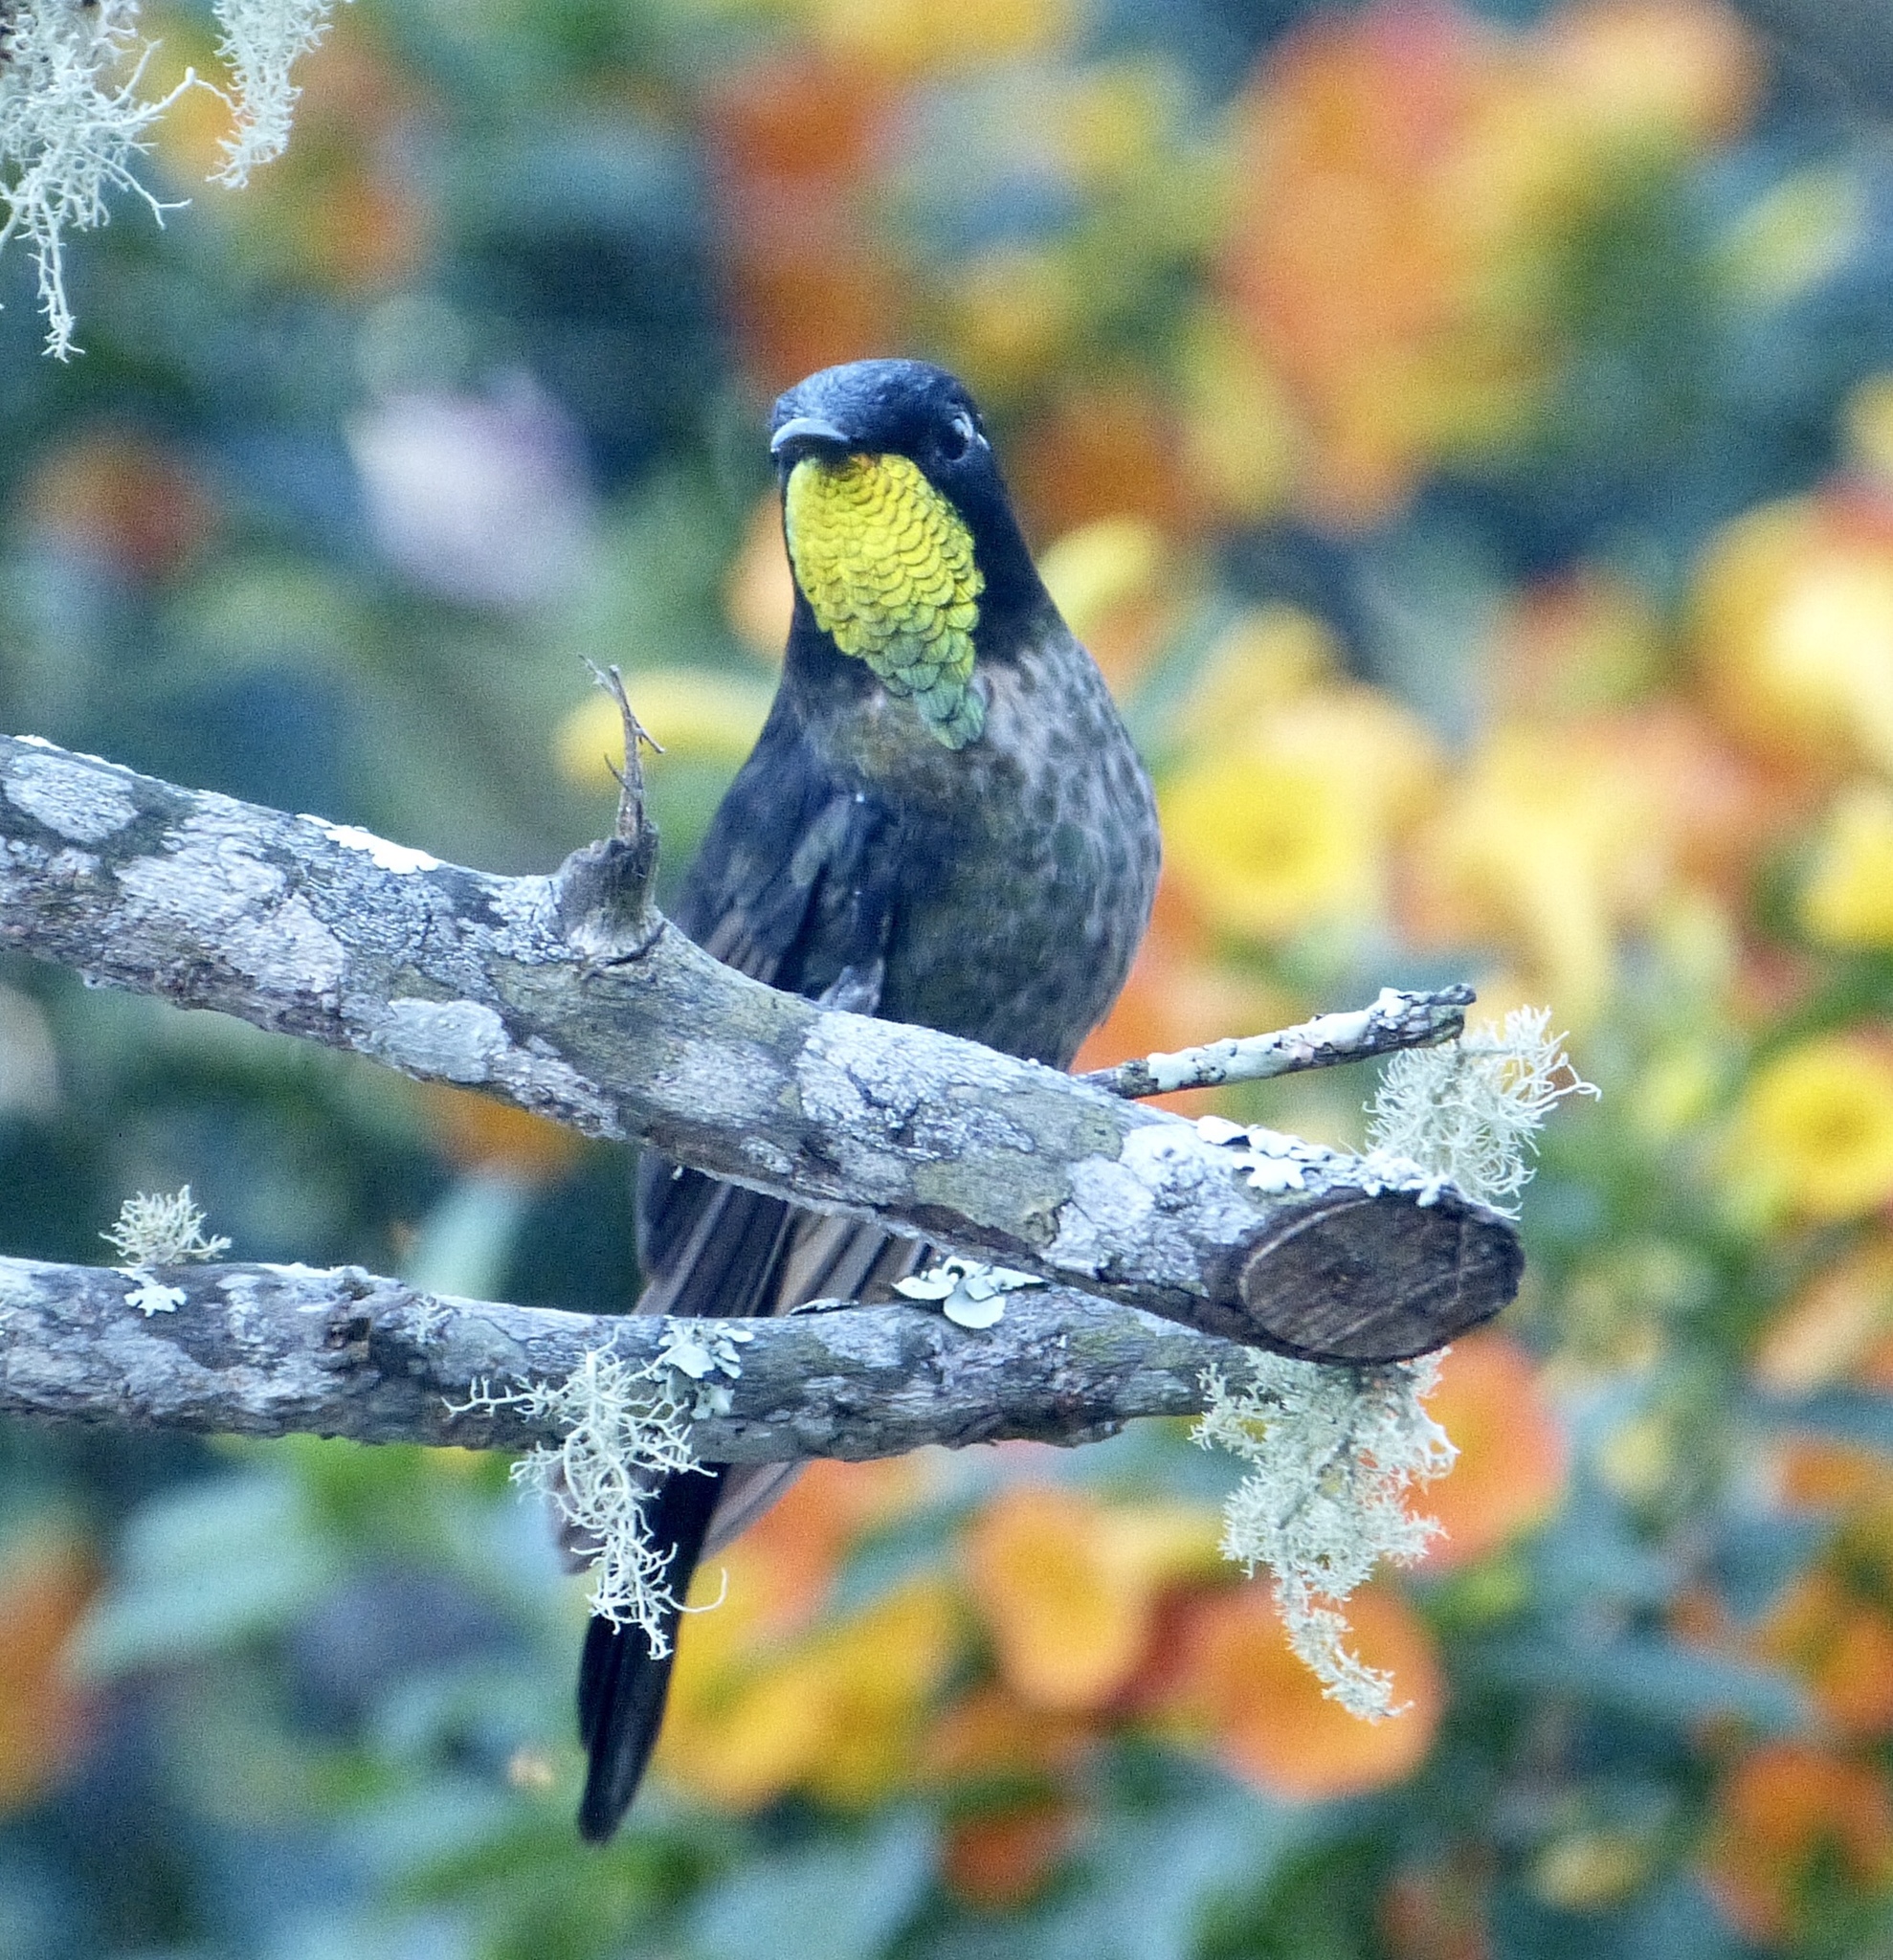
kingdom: Animalia
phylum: Chordata
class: Aves
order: Apodiformes
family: Trochilidae
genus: Ramphomicron
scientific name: Ramphomicron dorsale
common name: Black-backed thornbill
